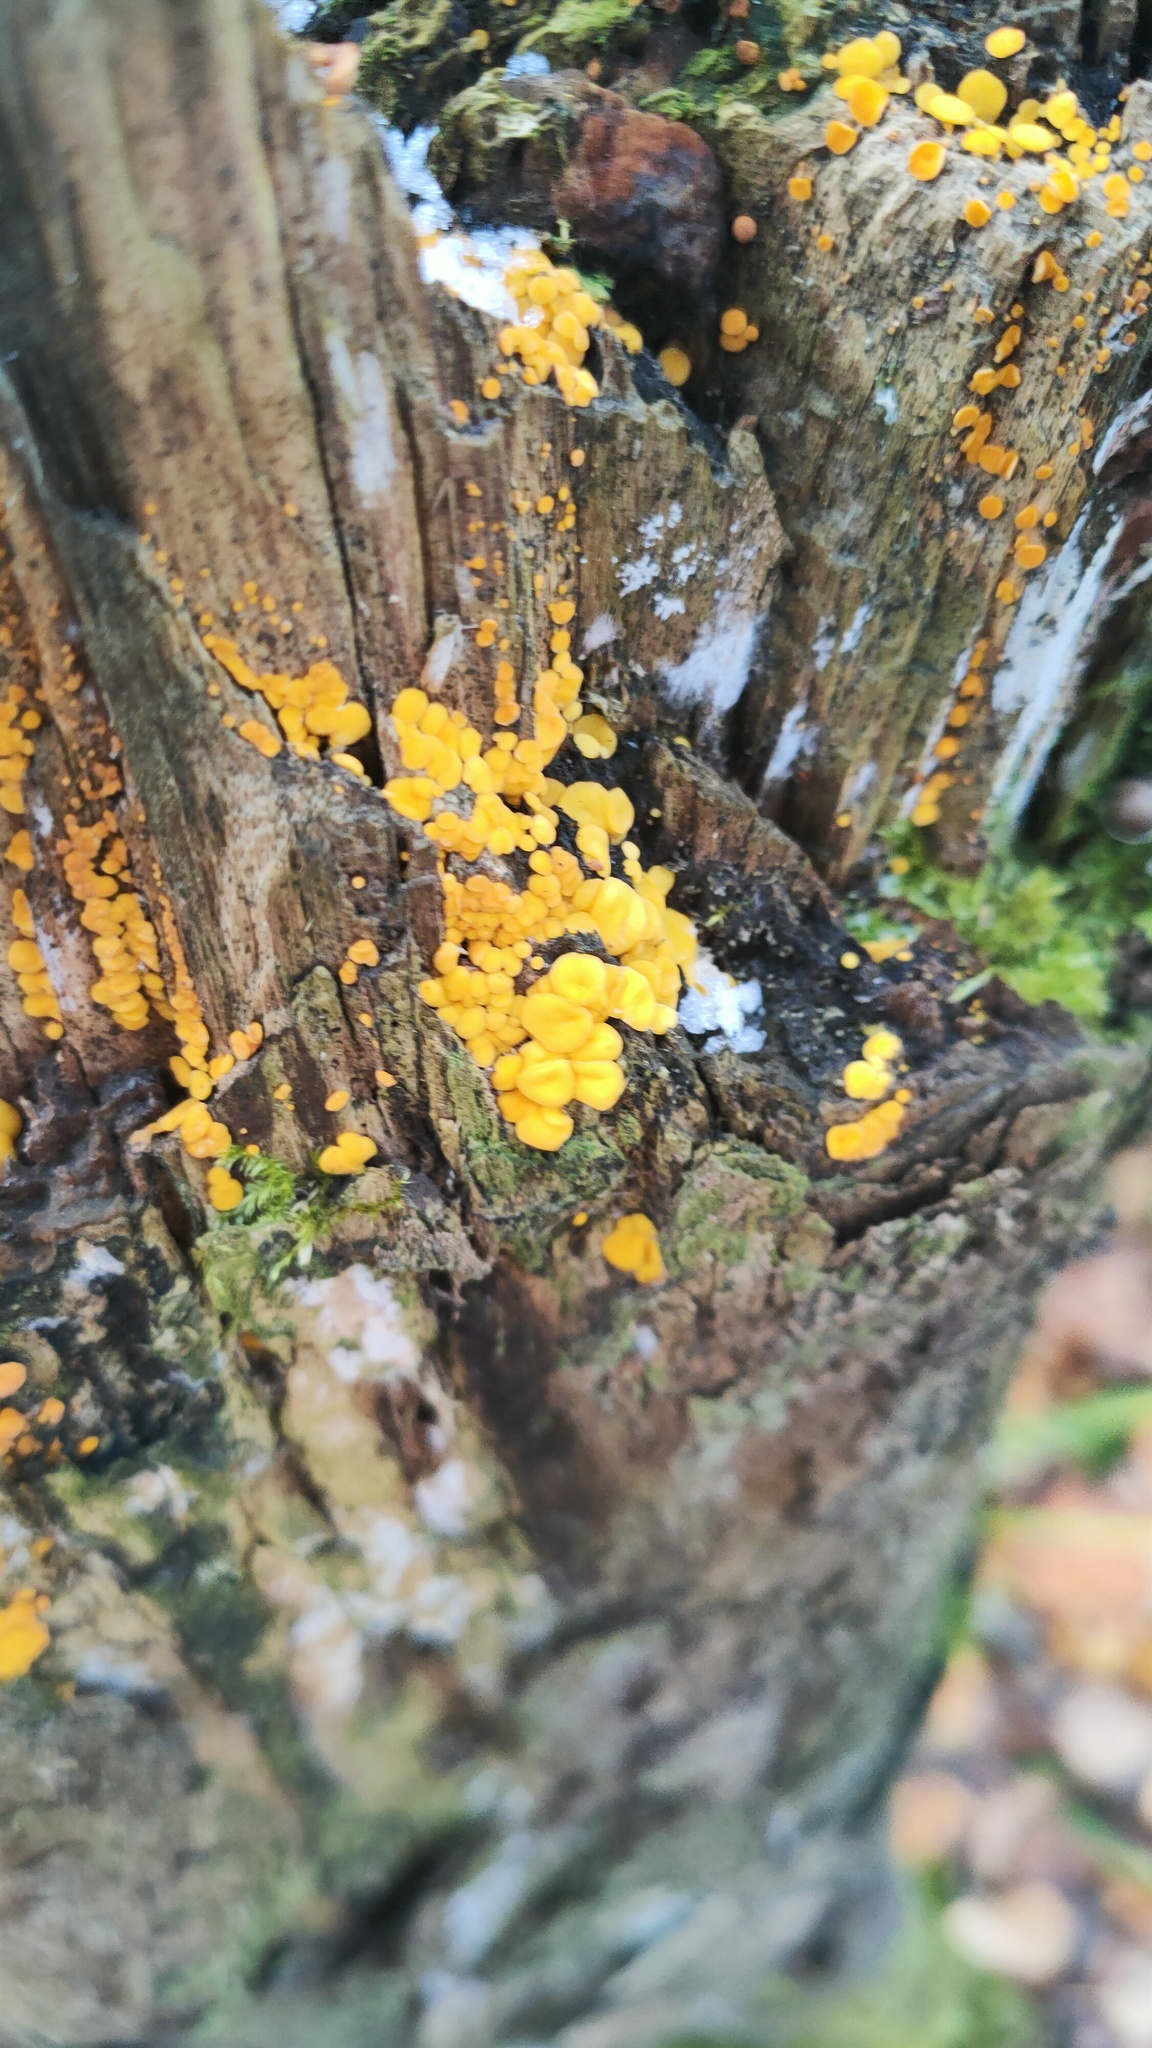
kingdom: Fungi
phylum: Ascomycota
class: Leotiomycetes
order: Helotiales
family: Pezizellaceae
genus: Calycina
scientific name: Calycina citrina
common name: Yellow fairy cups
